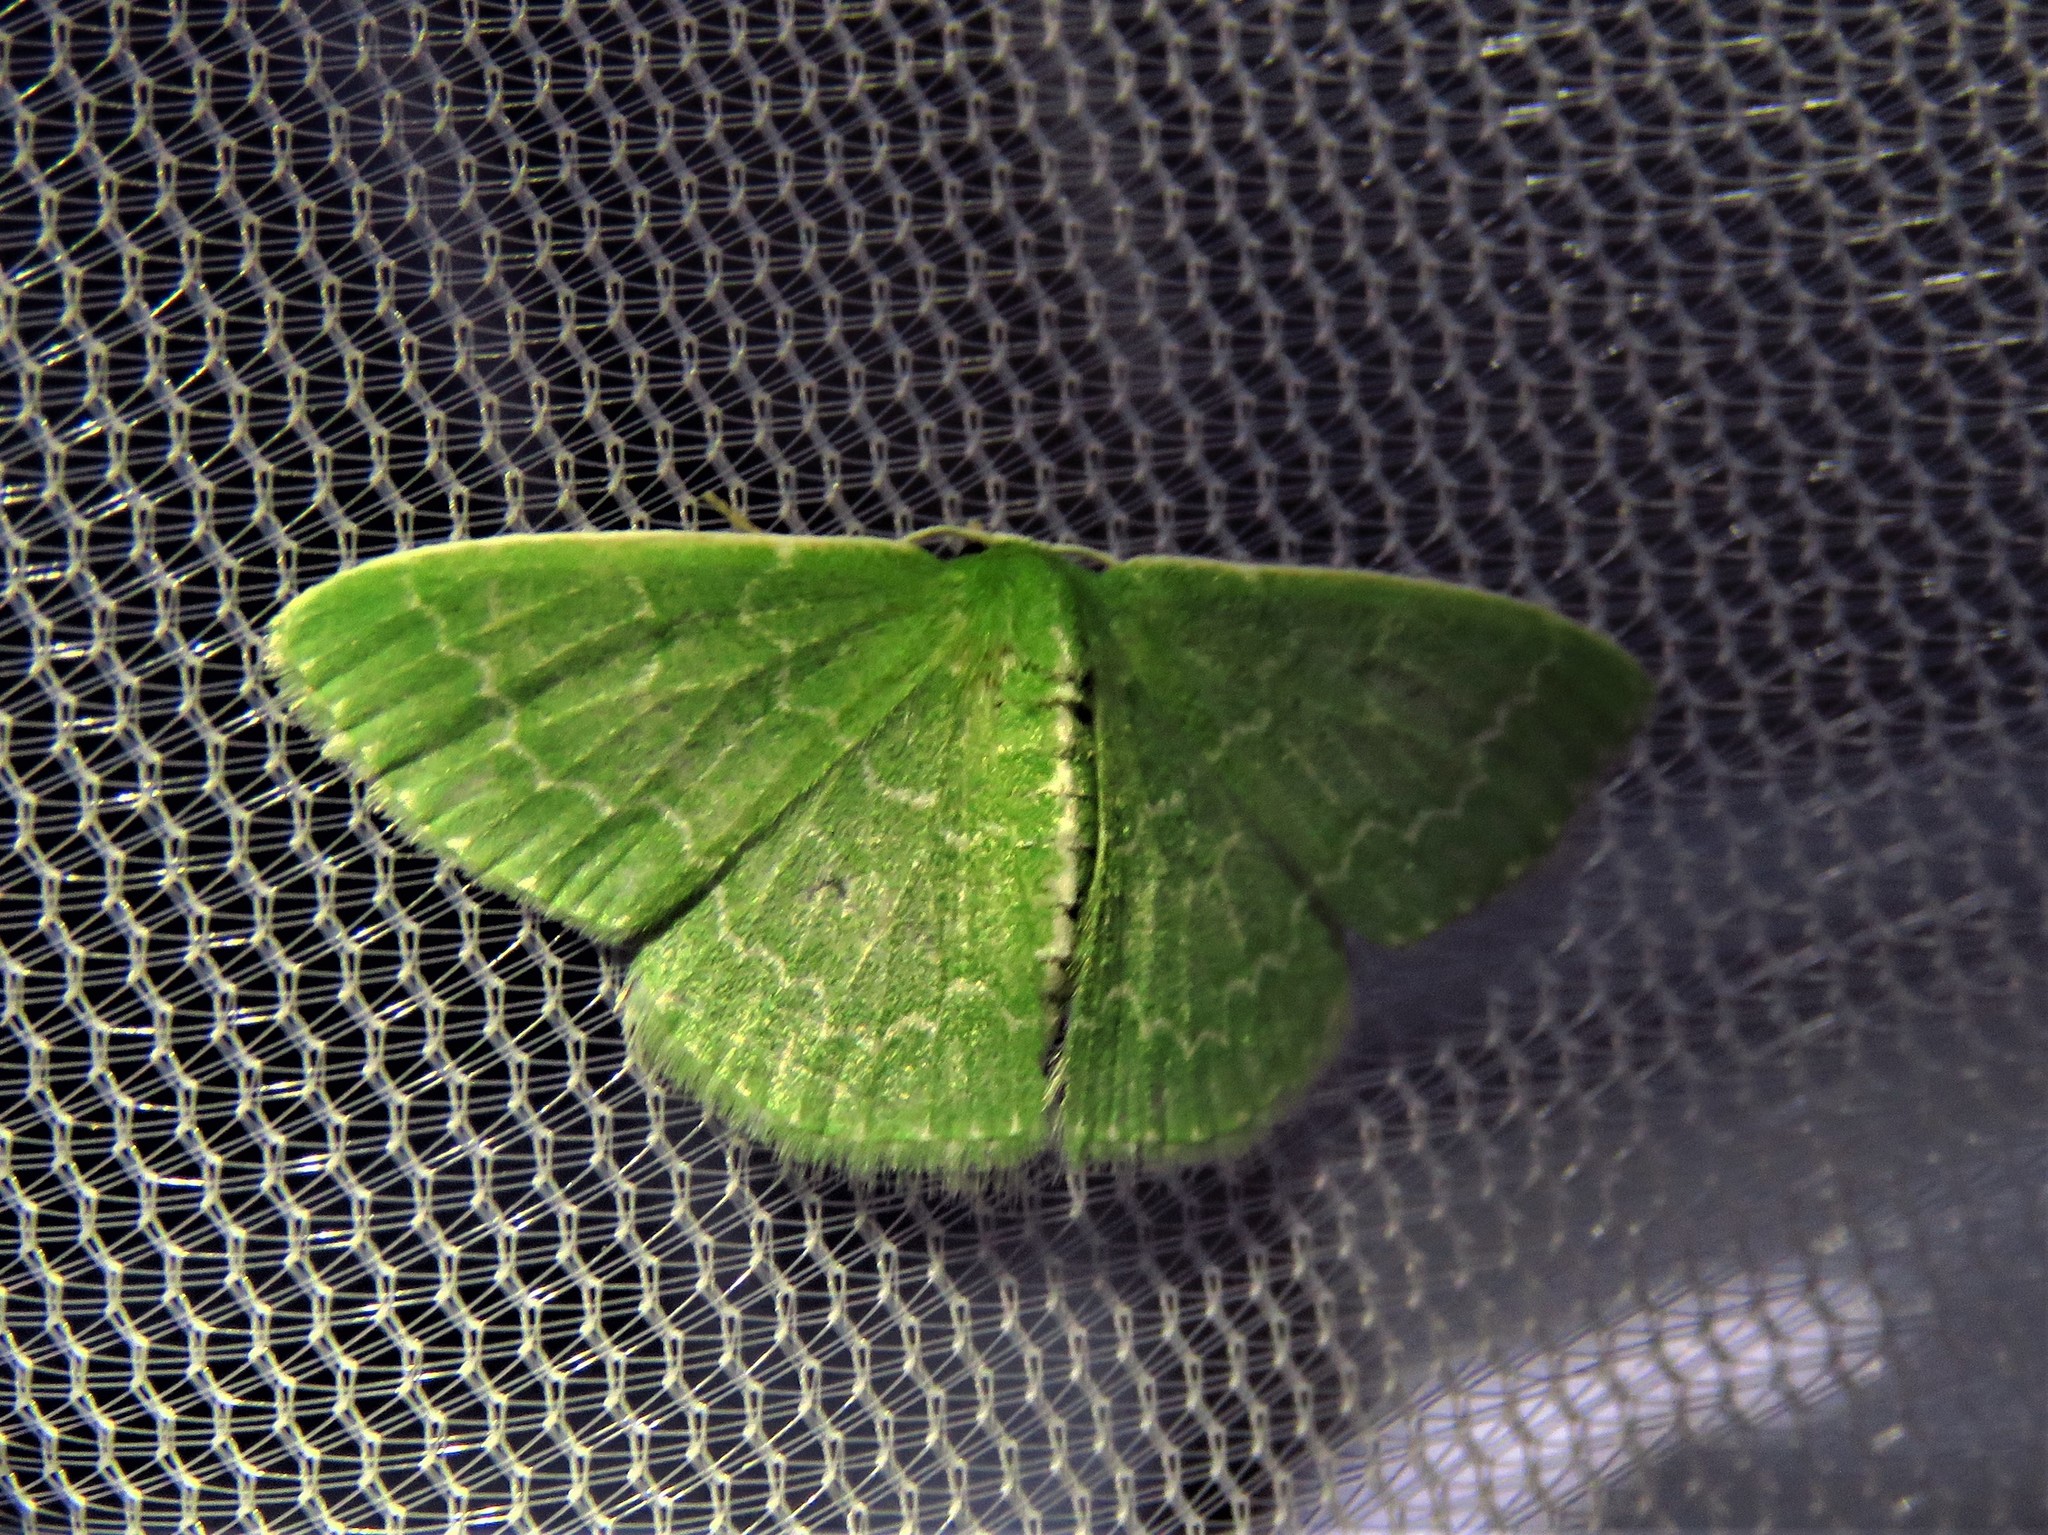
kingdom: Animalia
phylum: Arthropoda
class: Insecta
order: Lepidoptera
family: Geometridae
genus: Synchlora
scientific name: Synchlora frondaria
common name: Southern emerald
